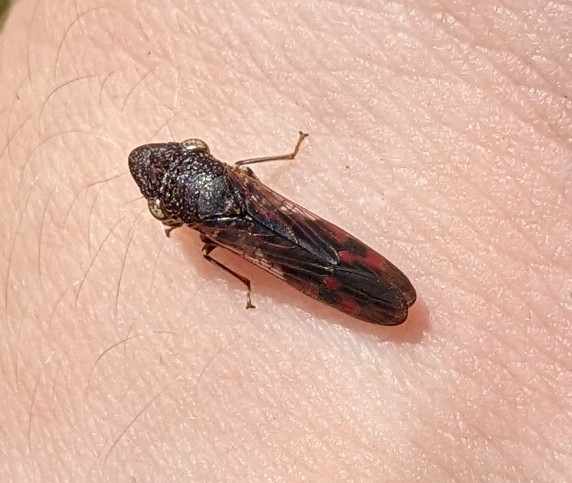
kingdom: Animalia
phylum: Arthropoda
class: Insecta
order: Hemiptera
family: Cicadellidae
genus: Homalodisca
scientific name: Homalodisca vitripennis
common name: Glassy-winged sharpshooter
